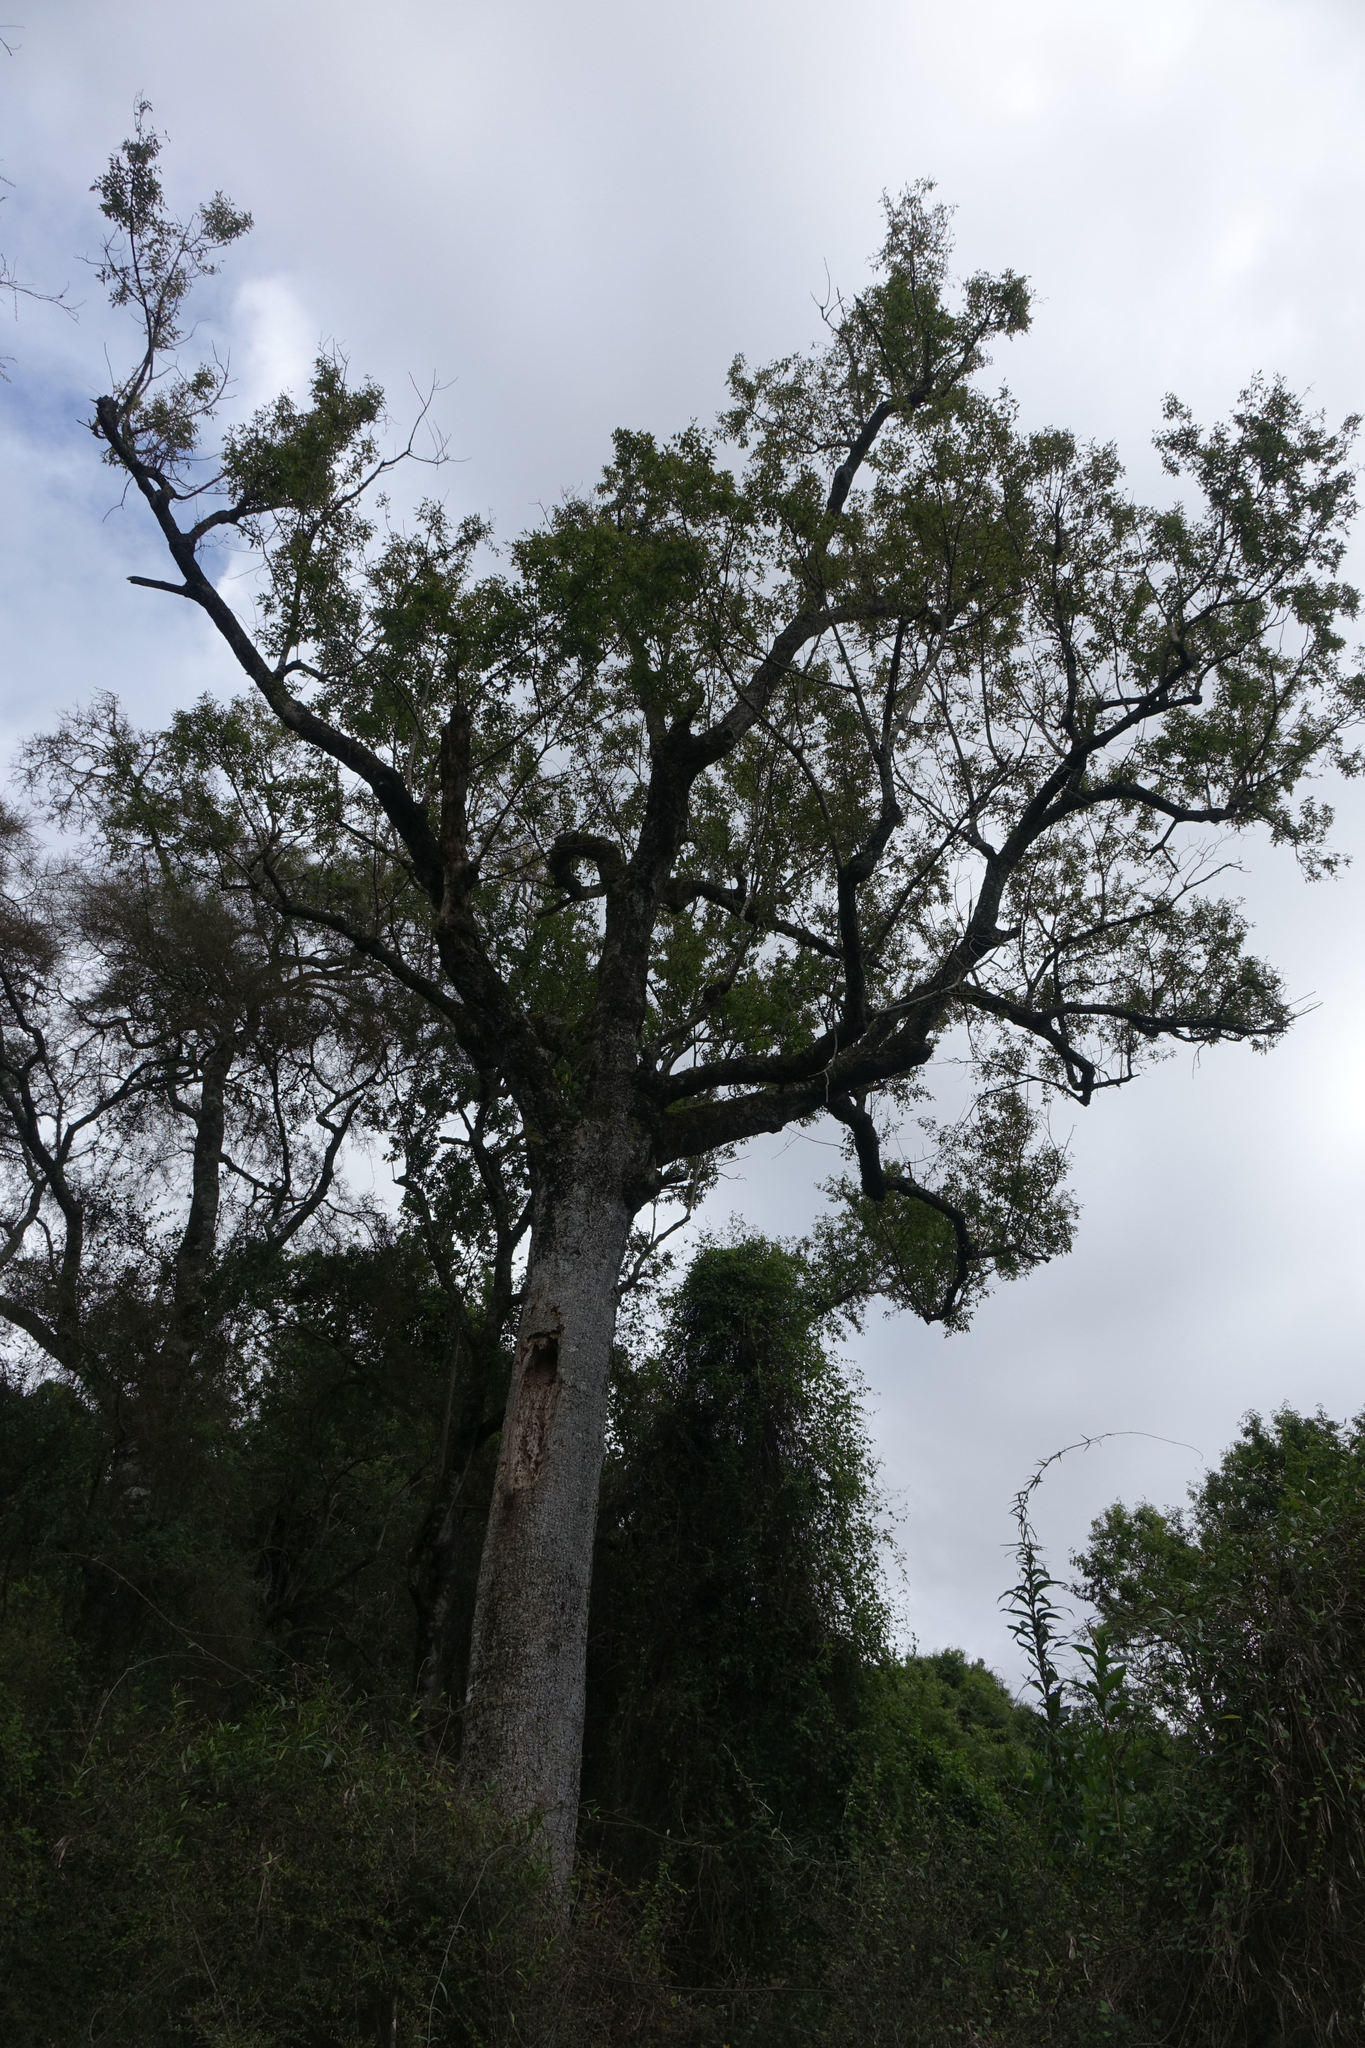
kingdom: Plantae
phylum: Tracheophyta
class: Magnoliopsida
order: Malvales
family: Malvaceae
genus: Plagianthus
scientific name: Plagianthus regius
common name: Manatu
